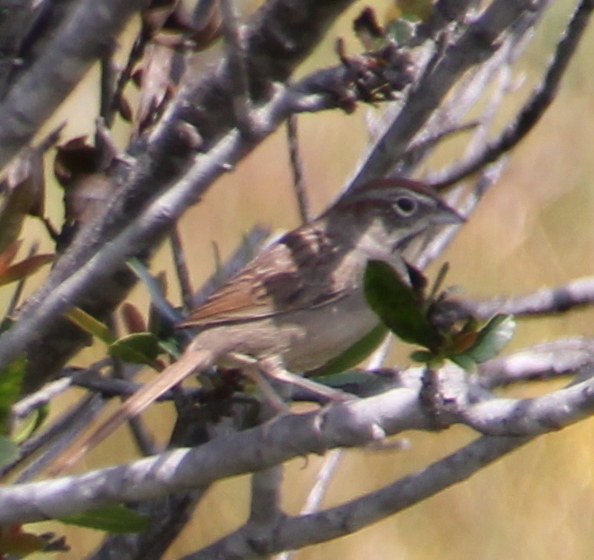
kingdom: Animalia
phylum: Chordata
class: Aves
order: Passeriformes
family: Passerellidae
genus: Aimophila
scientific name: Aimophila ruficeps
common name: Rufous-crowned sparrow
